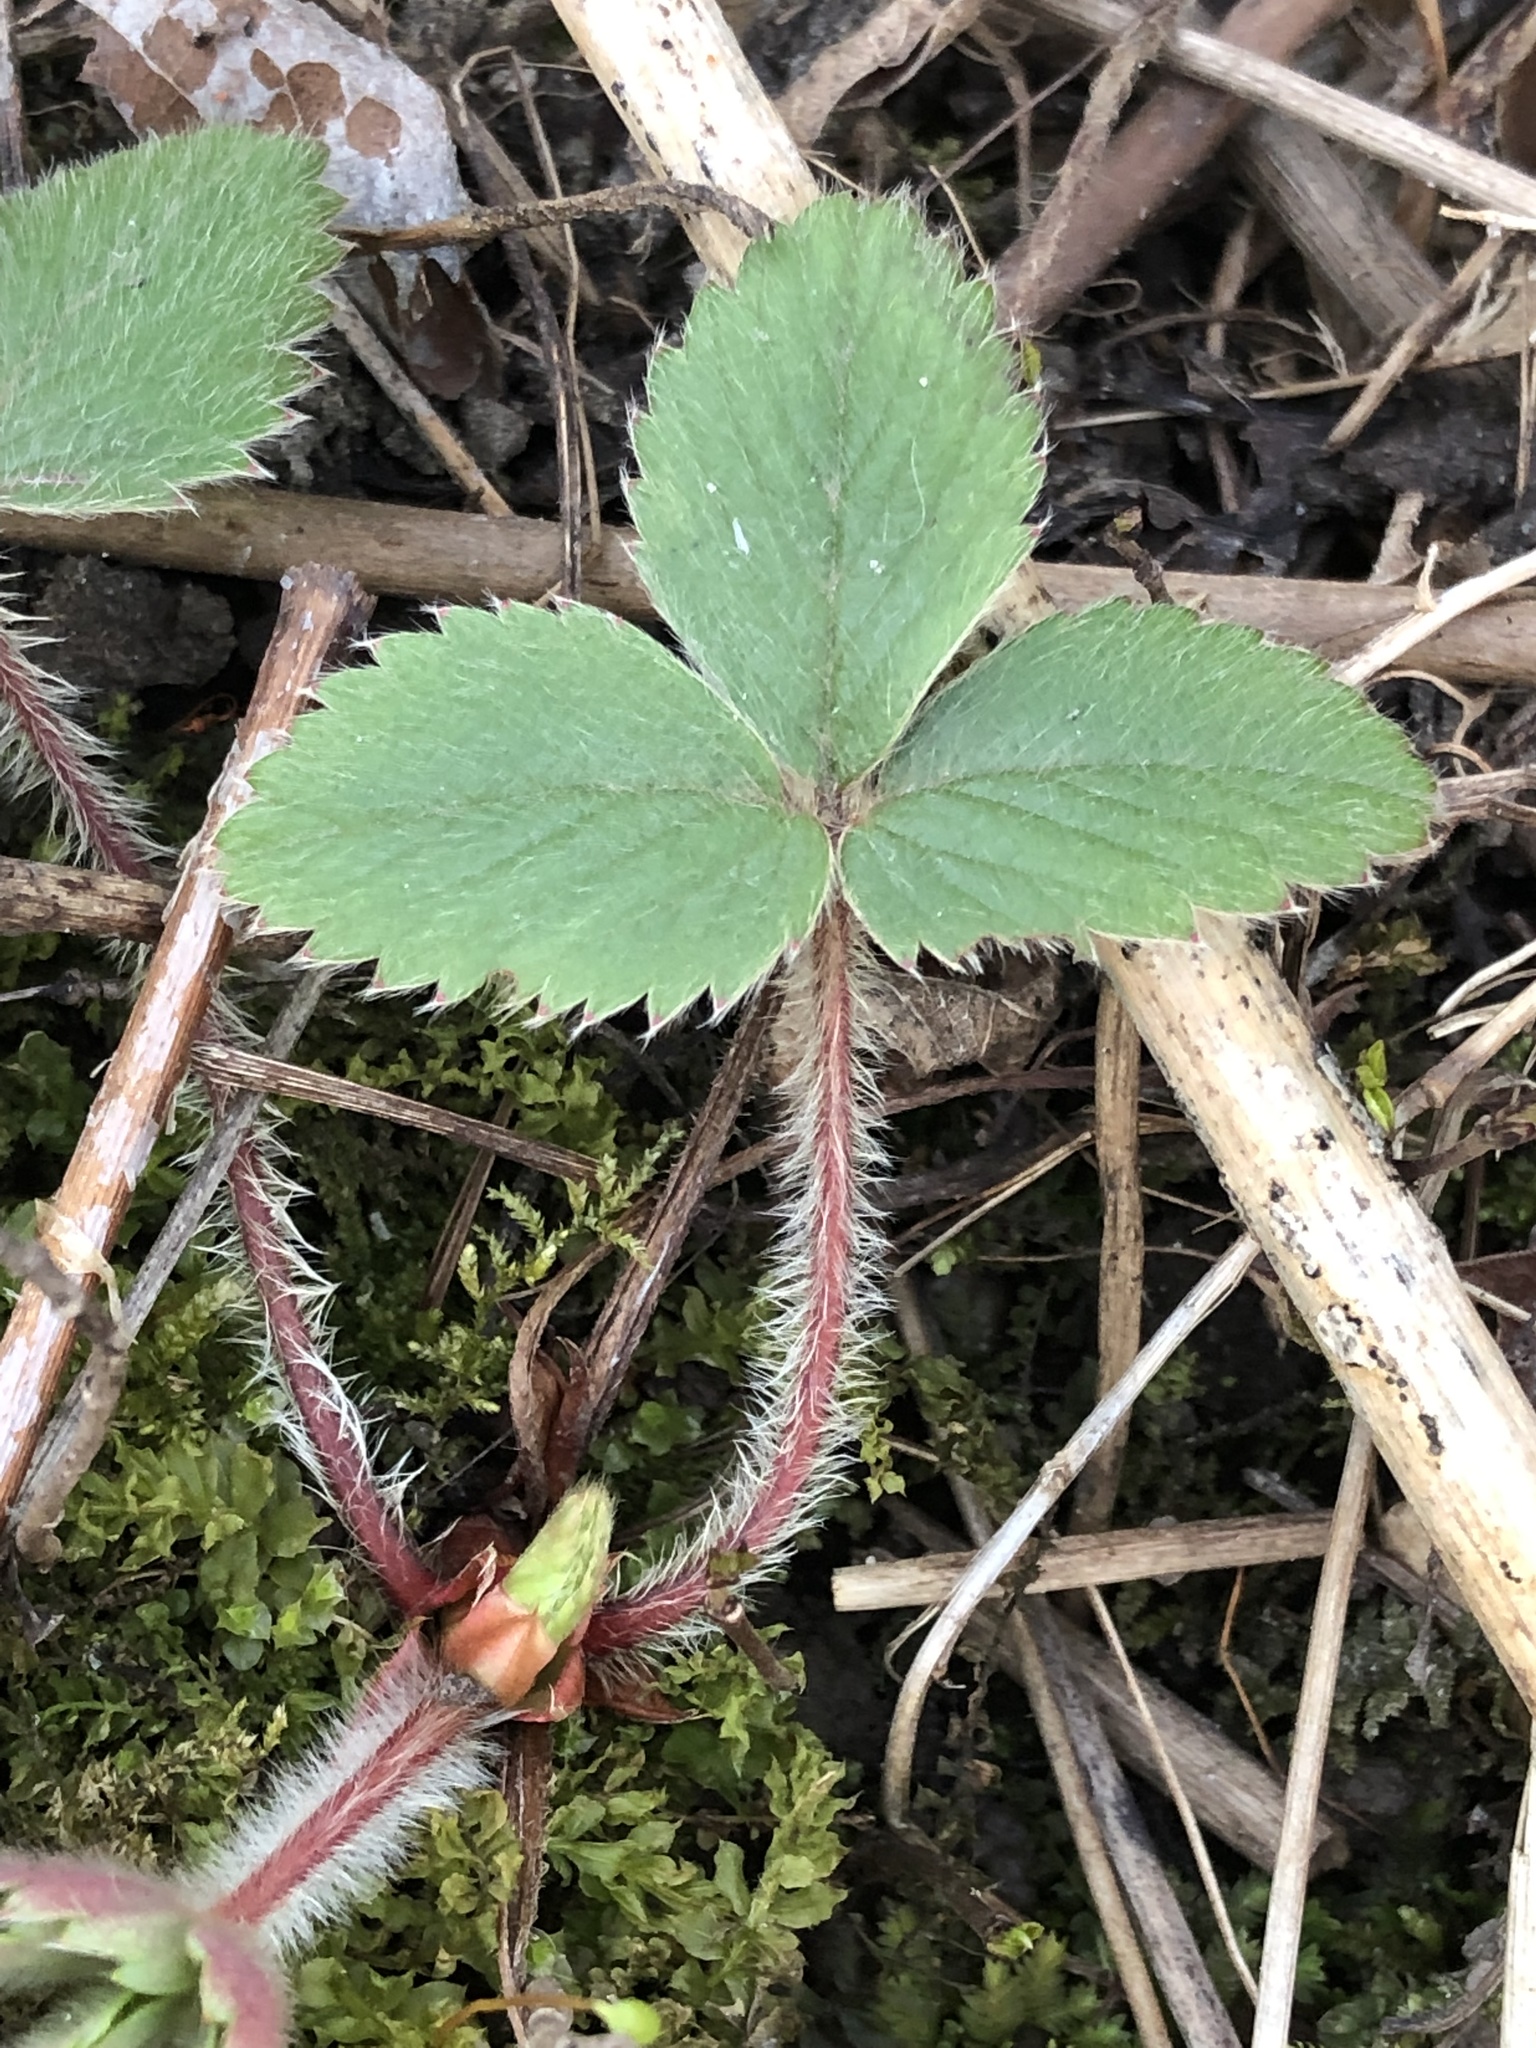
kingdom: Plantae
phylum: Tracheophyta
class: Magnoliopsida
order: Rosales
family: Rosaceae
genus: Fragaria
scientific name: Fragaria virginiana
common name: Thickleaved wild strawberry
